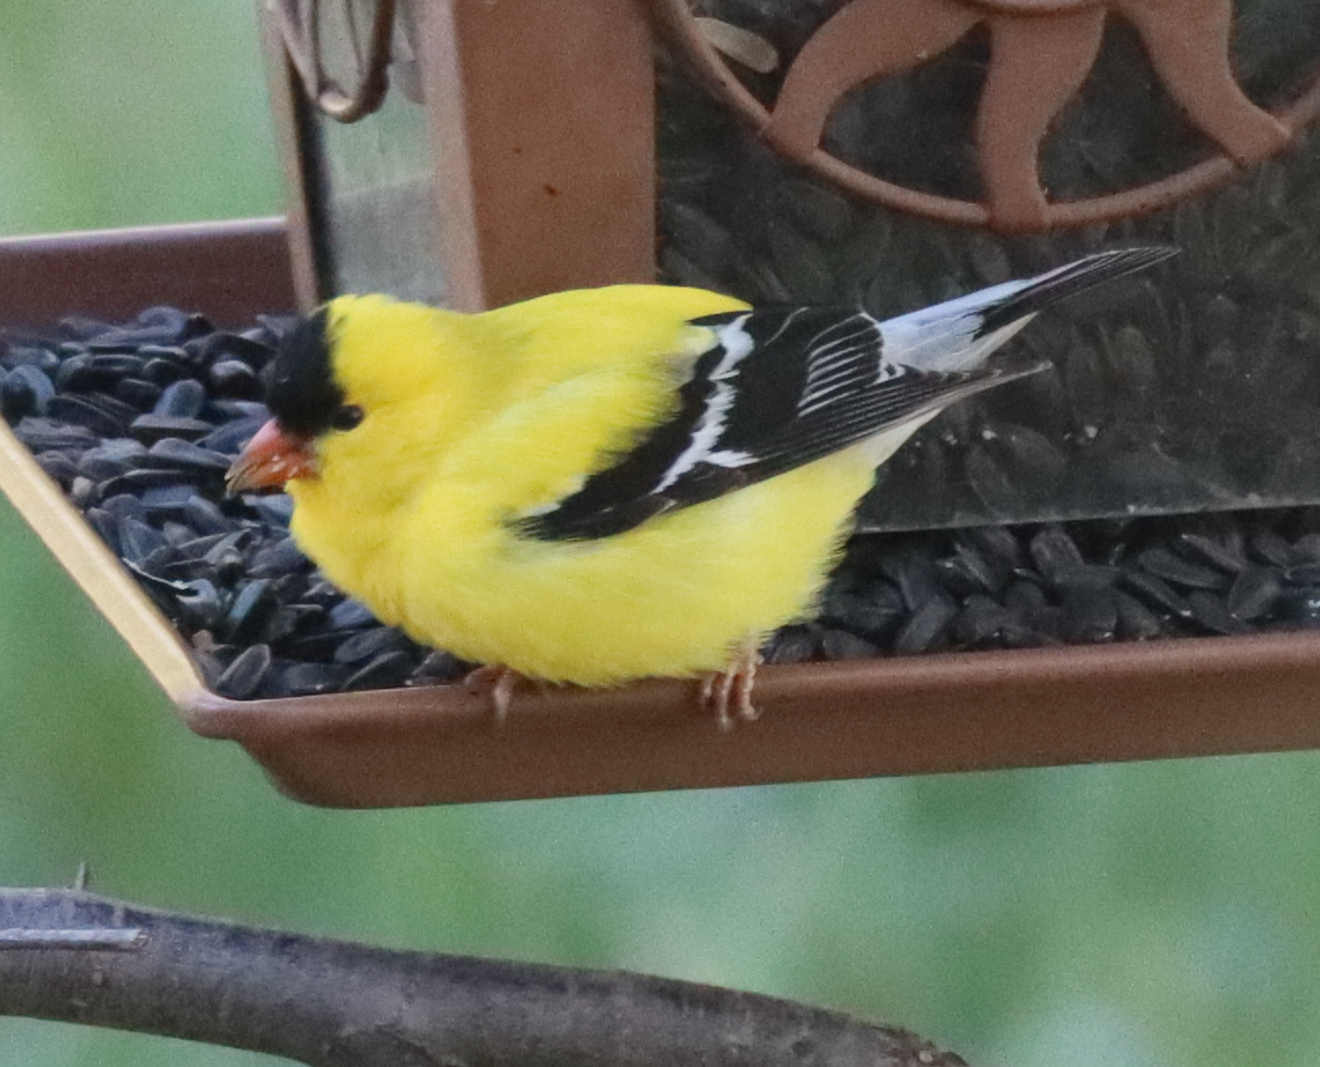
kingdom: Animalia
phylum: Chordata
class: Aves
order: Passeriformes
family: Fringillidae
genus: Spinus
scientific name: Spinus tristis
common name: American goldfinch
